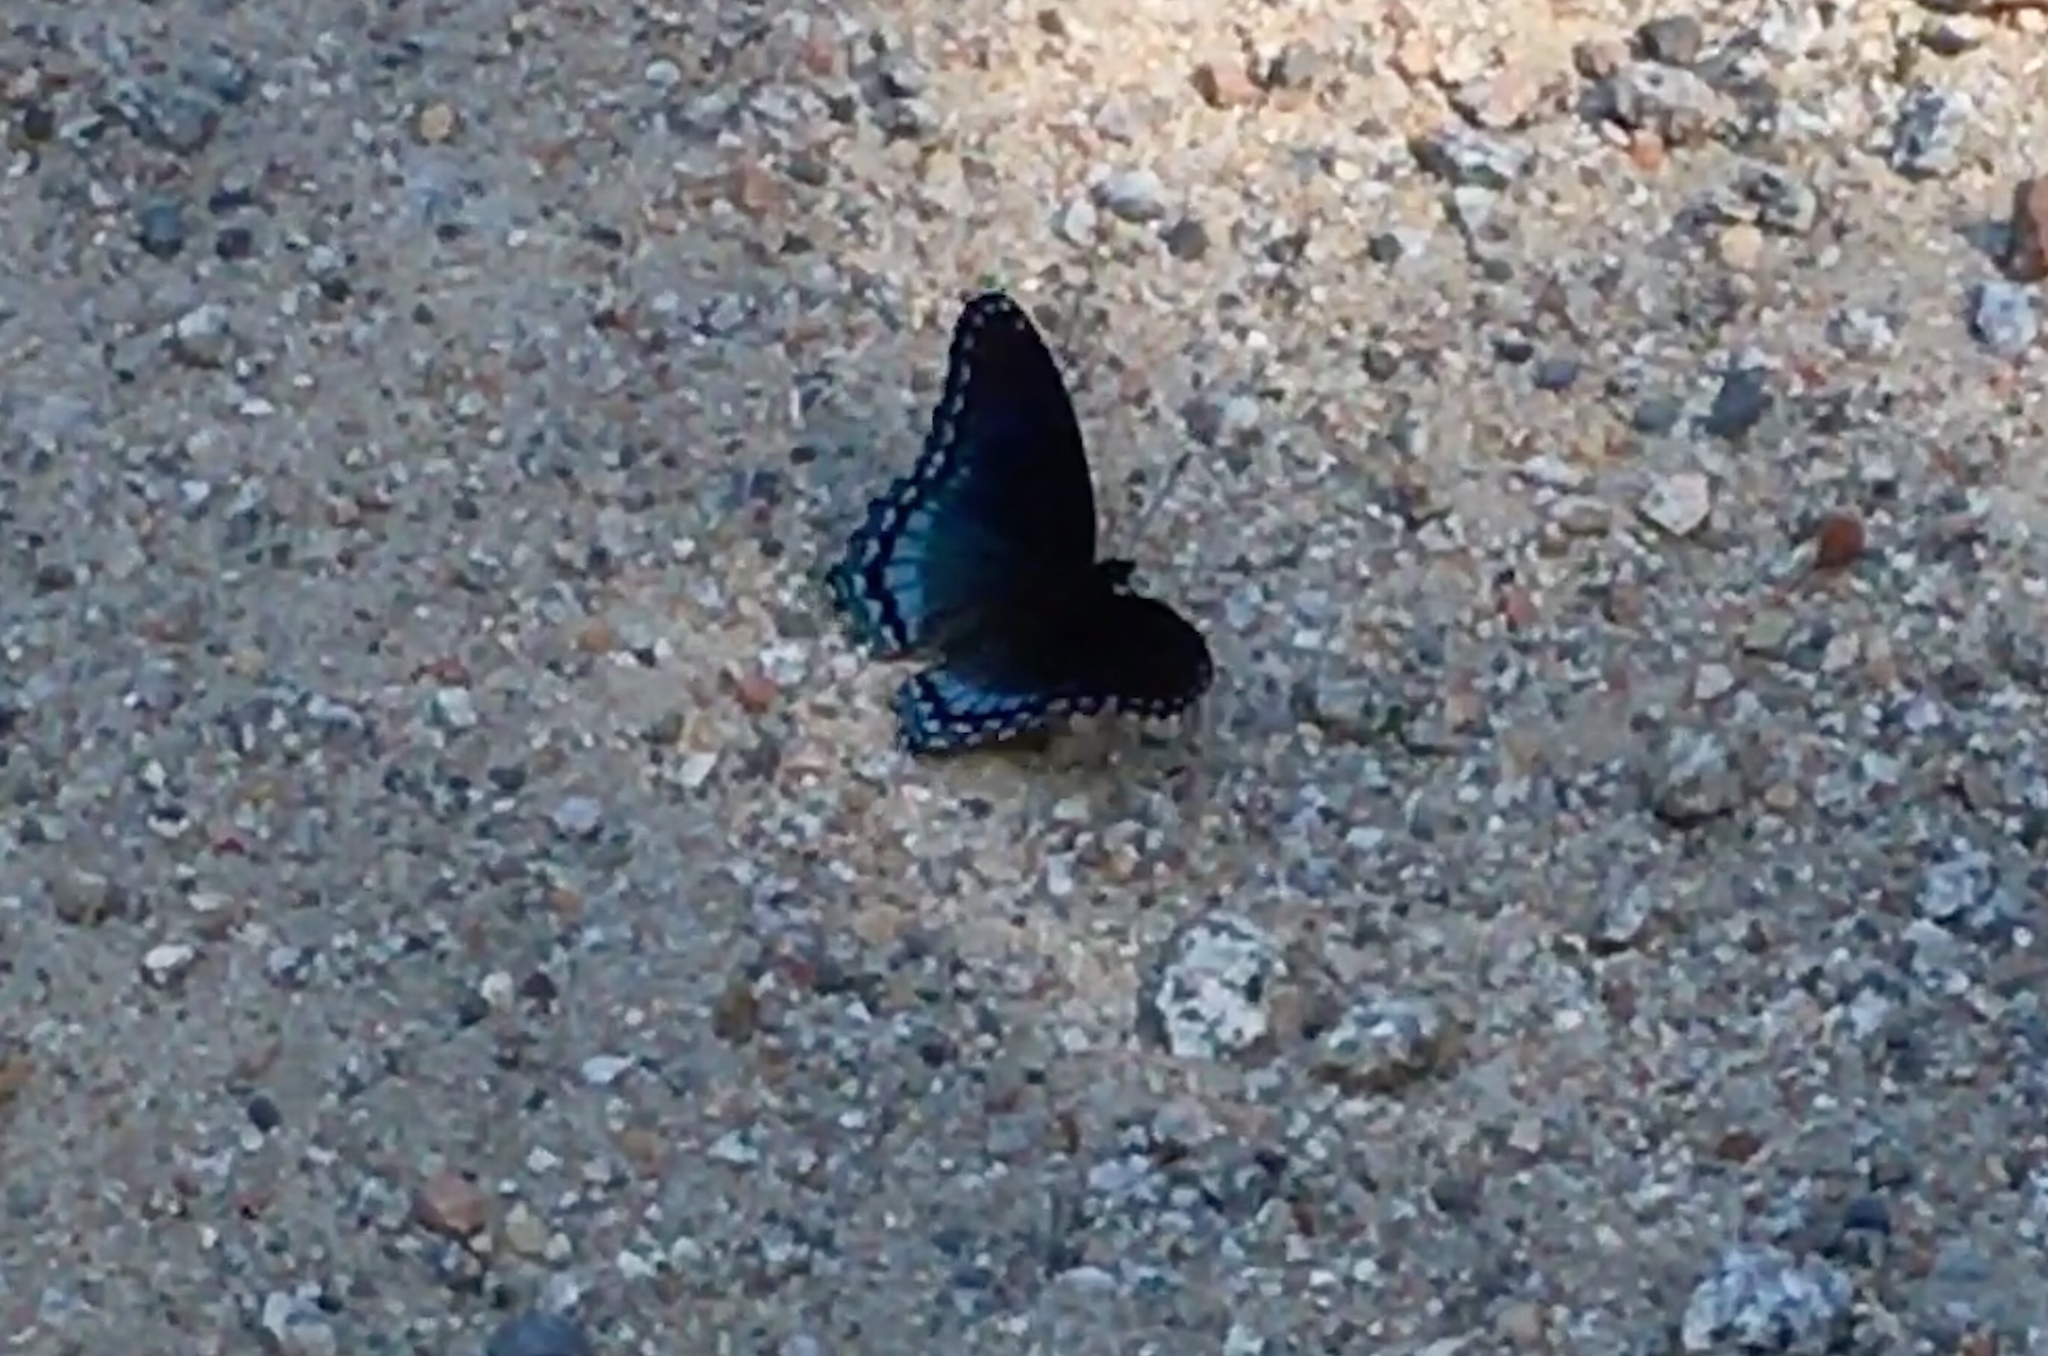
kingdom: Animalia
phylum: Arthropoda
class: Insecta
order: Lepidoptera
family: Nymphalidae
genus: Limenitis
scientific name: Limenitis astyanax
